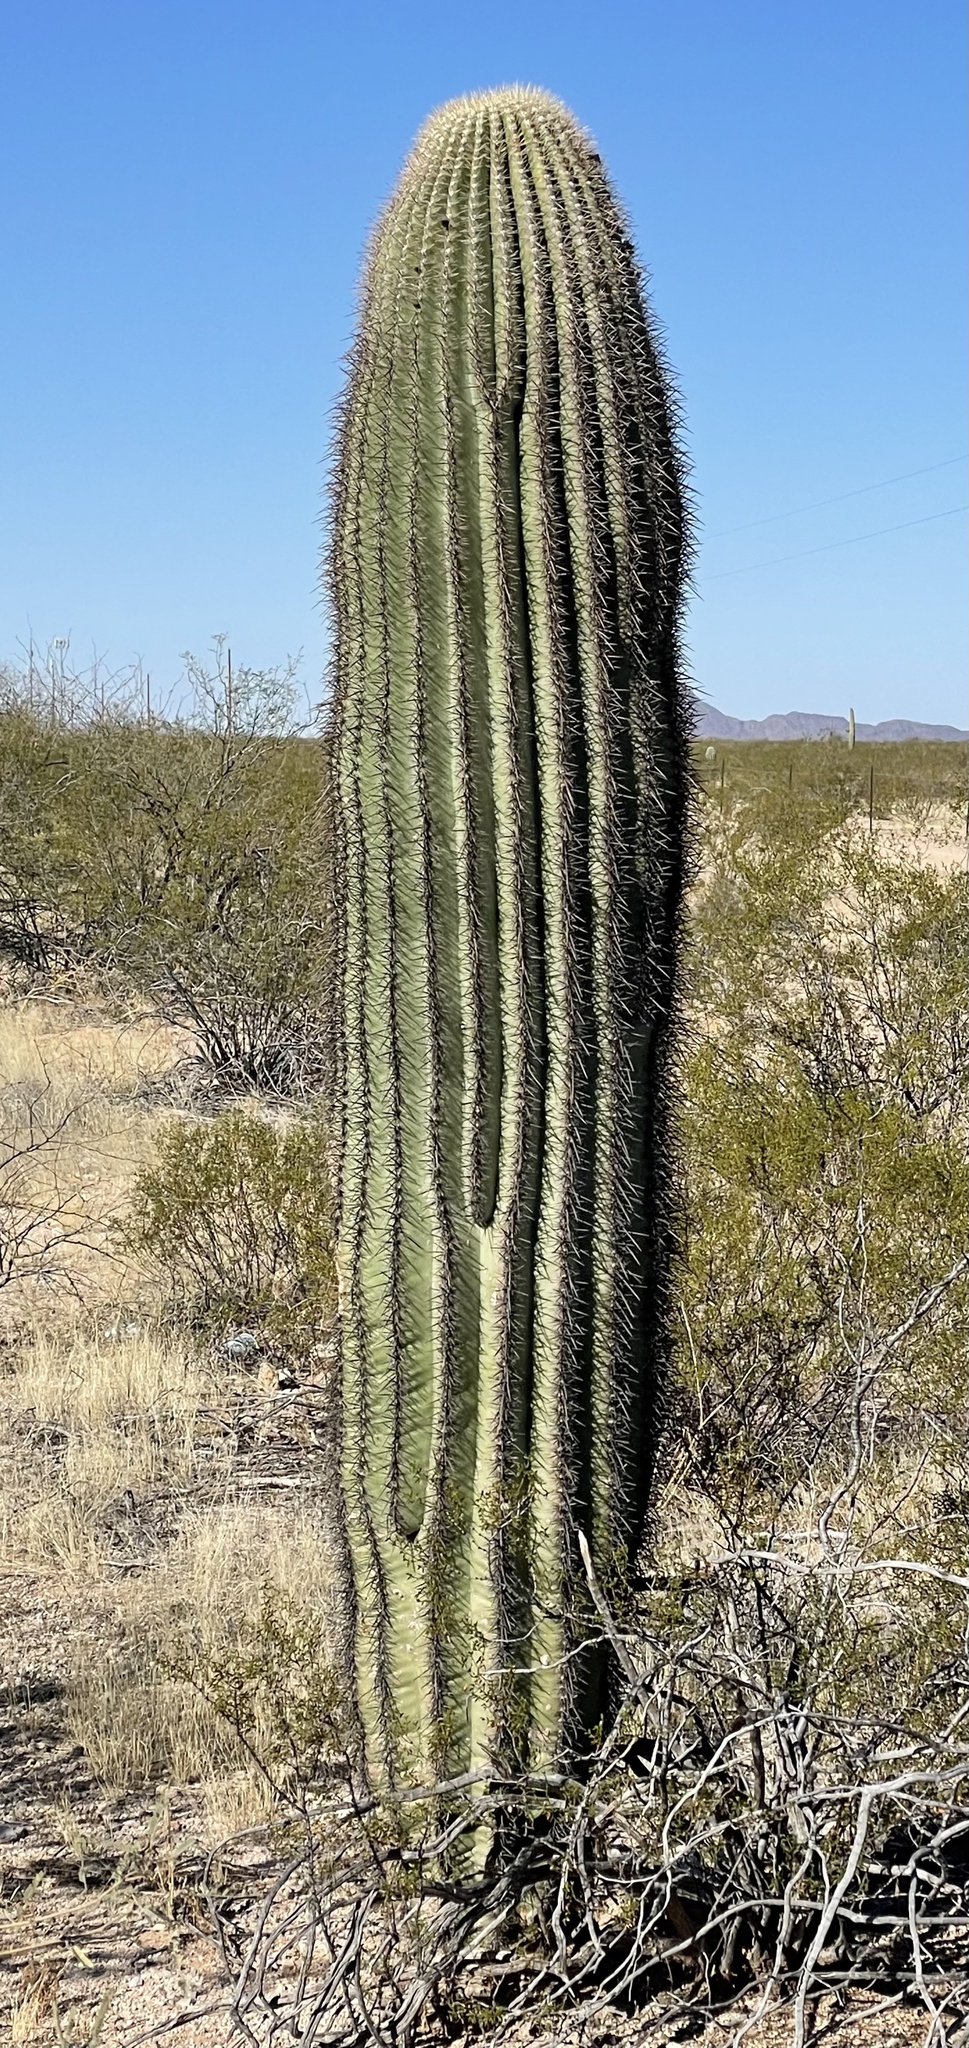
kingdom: Plantae
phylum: Tracheophyta
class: Magnoliopsida
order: Caryophyllales
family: Cactaceae
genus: Carnegiea
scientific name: Carnegiea gigantea
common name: Saguaro
